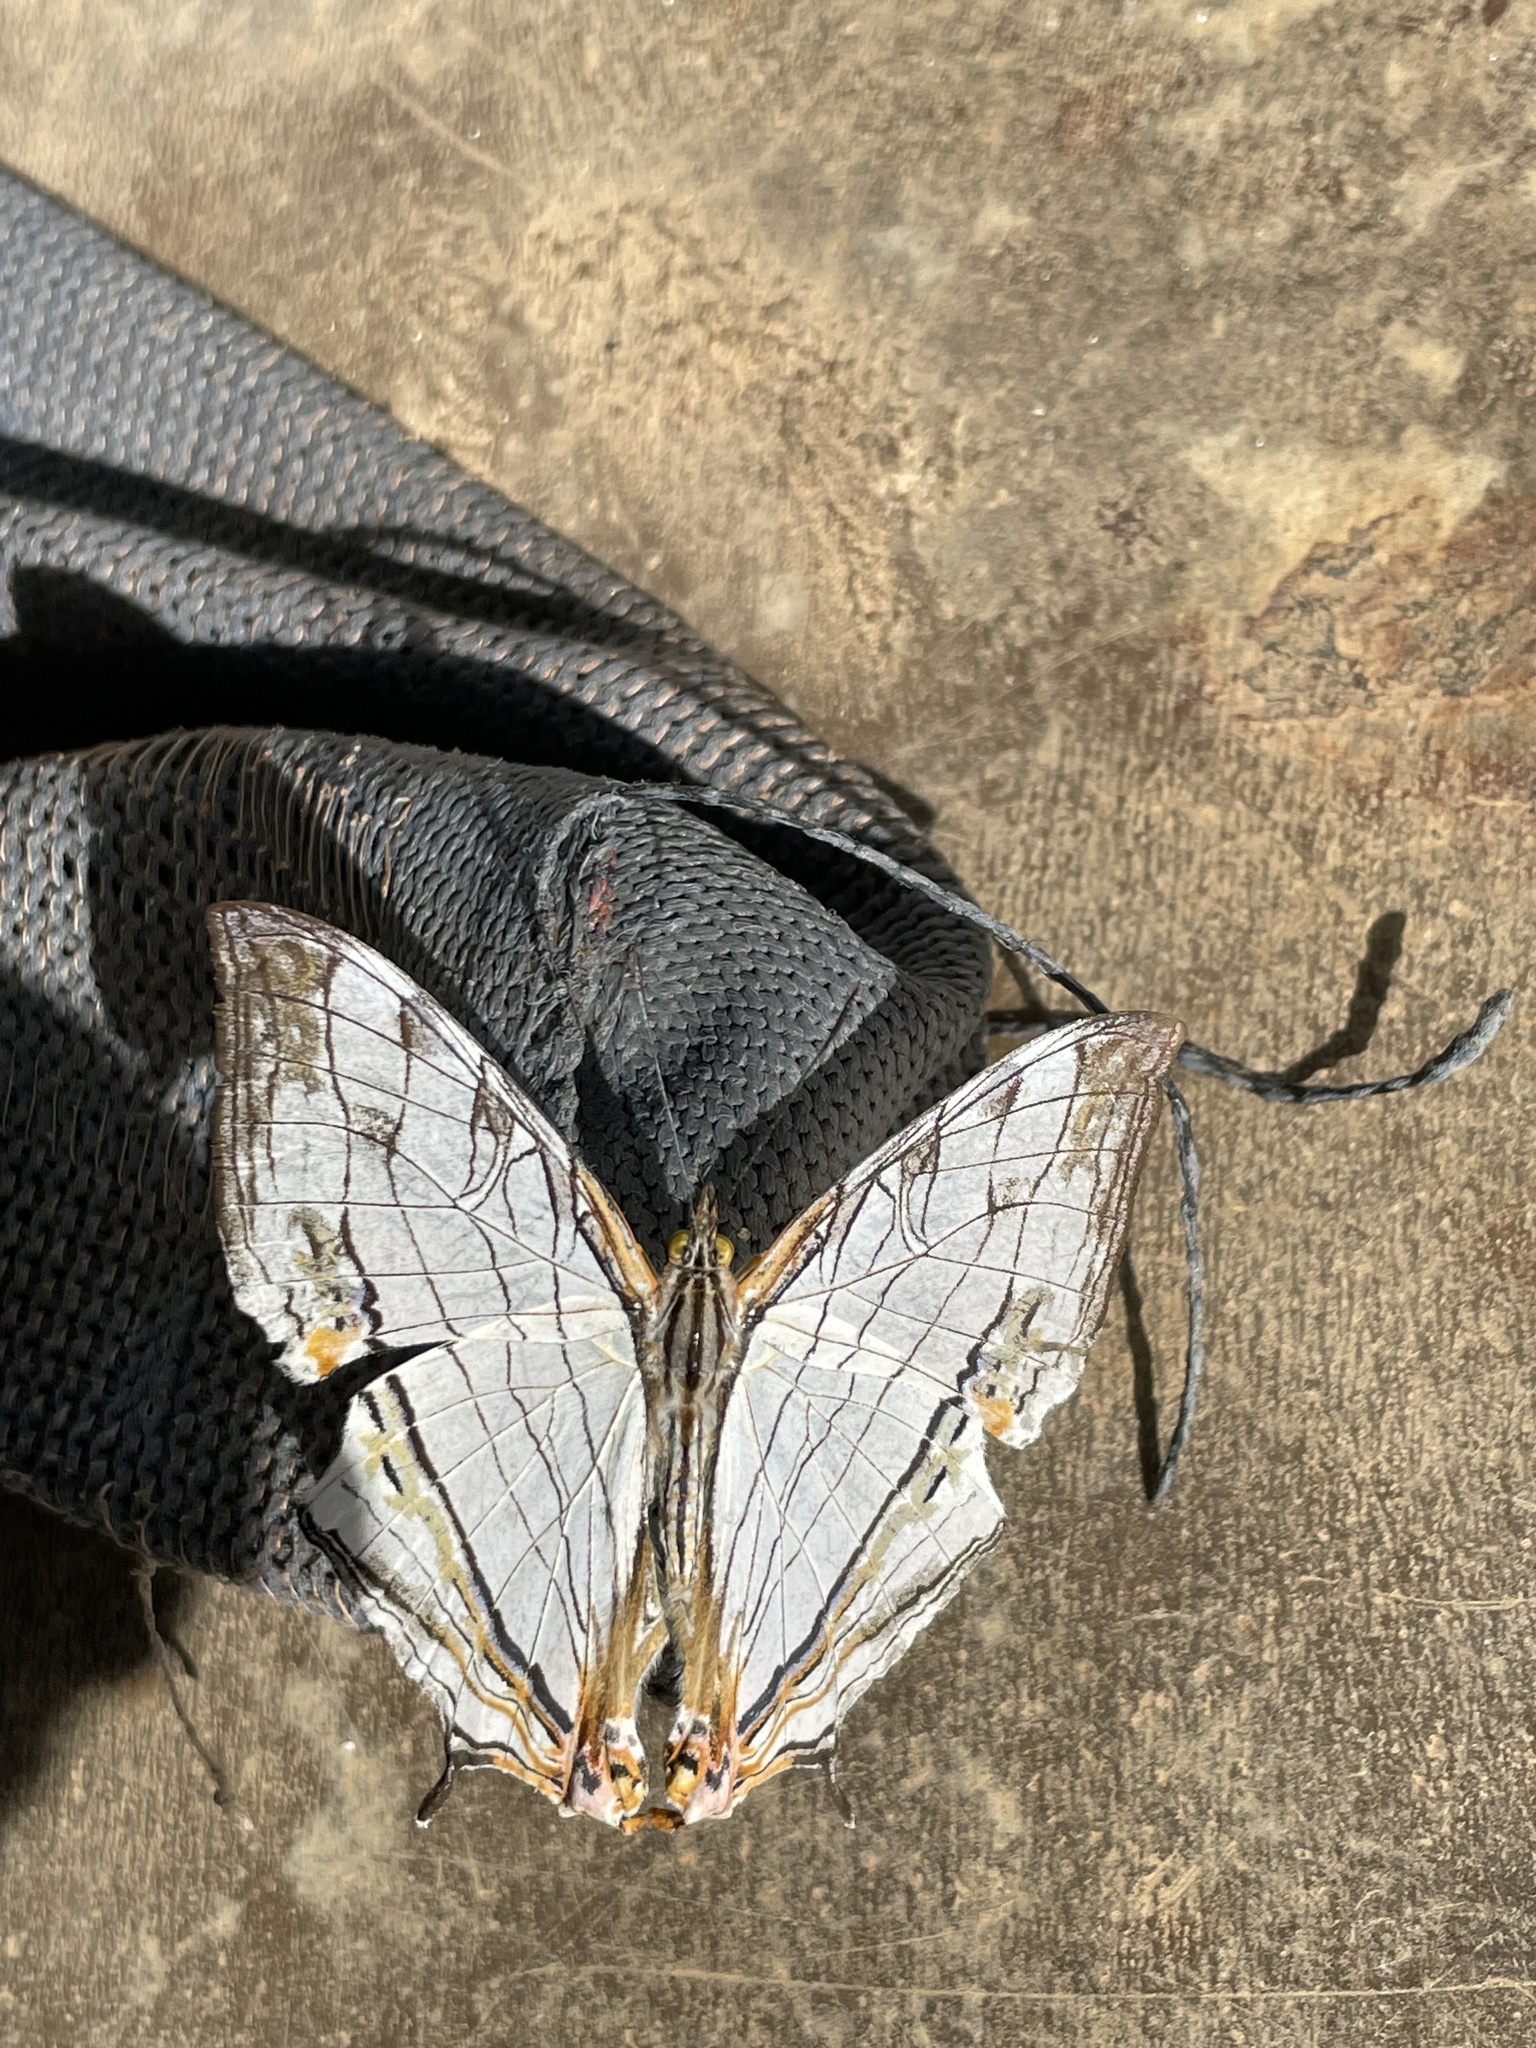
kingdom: Animalia
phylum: Arthropoda
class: Insecta
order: Lepidoptera
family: Nymphalidae
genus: Cyrestis
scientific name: Cyrestis thyodamas
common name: Common mapwing
